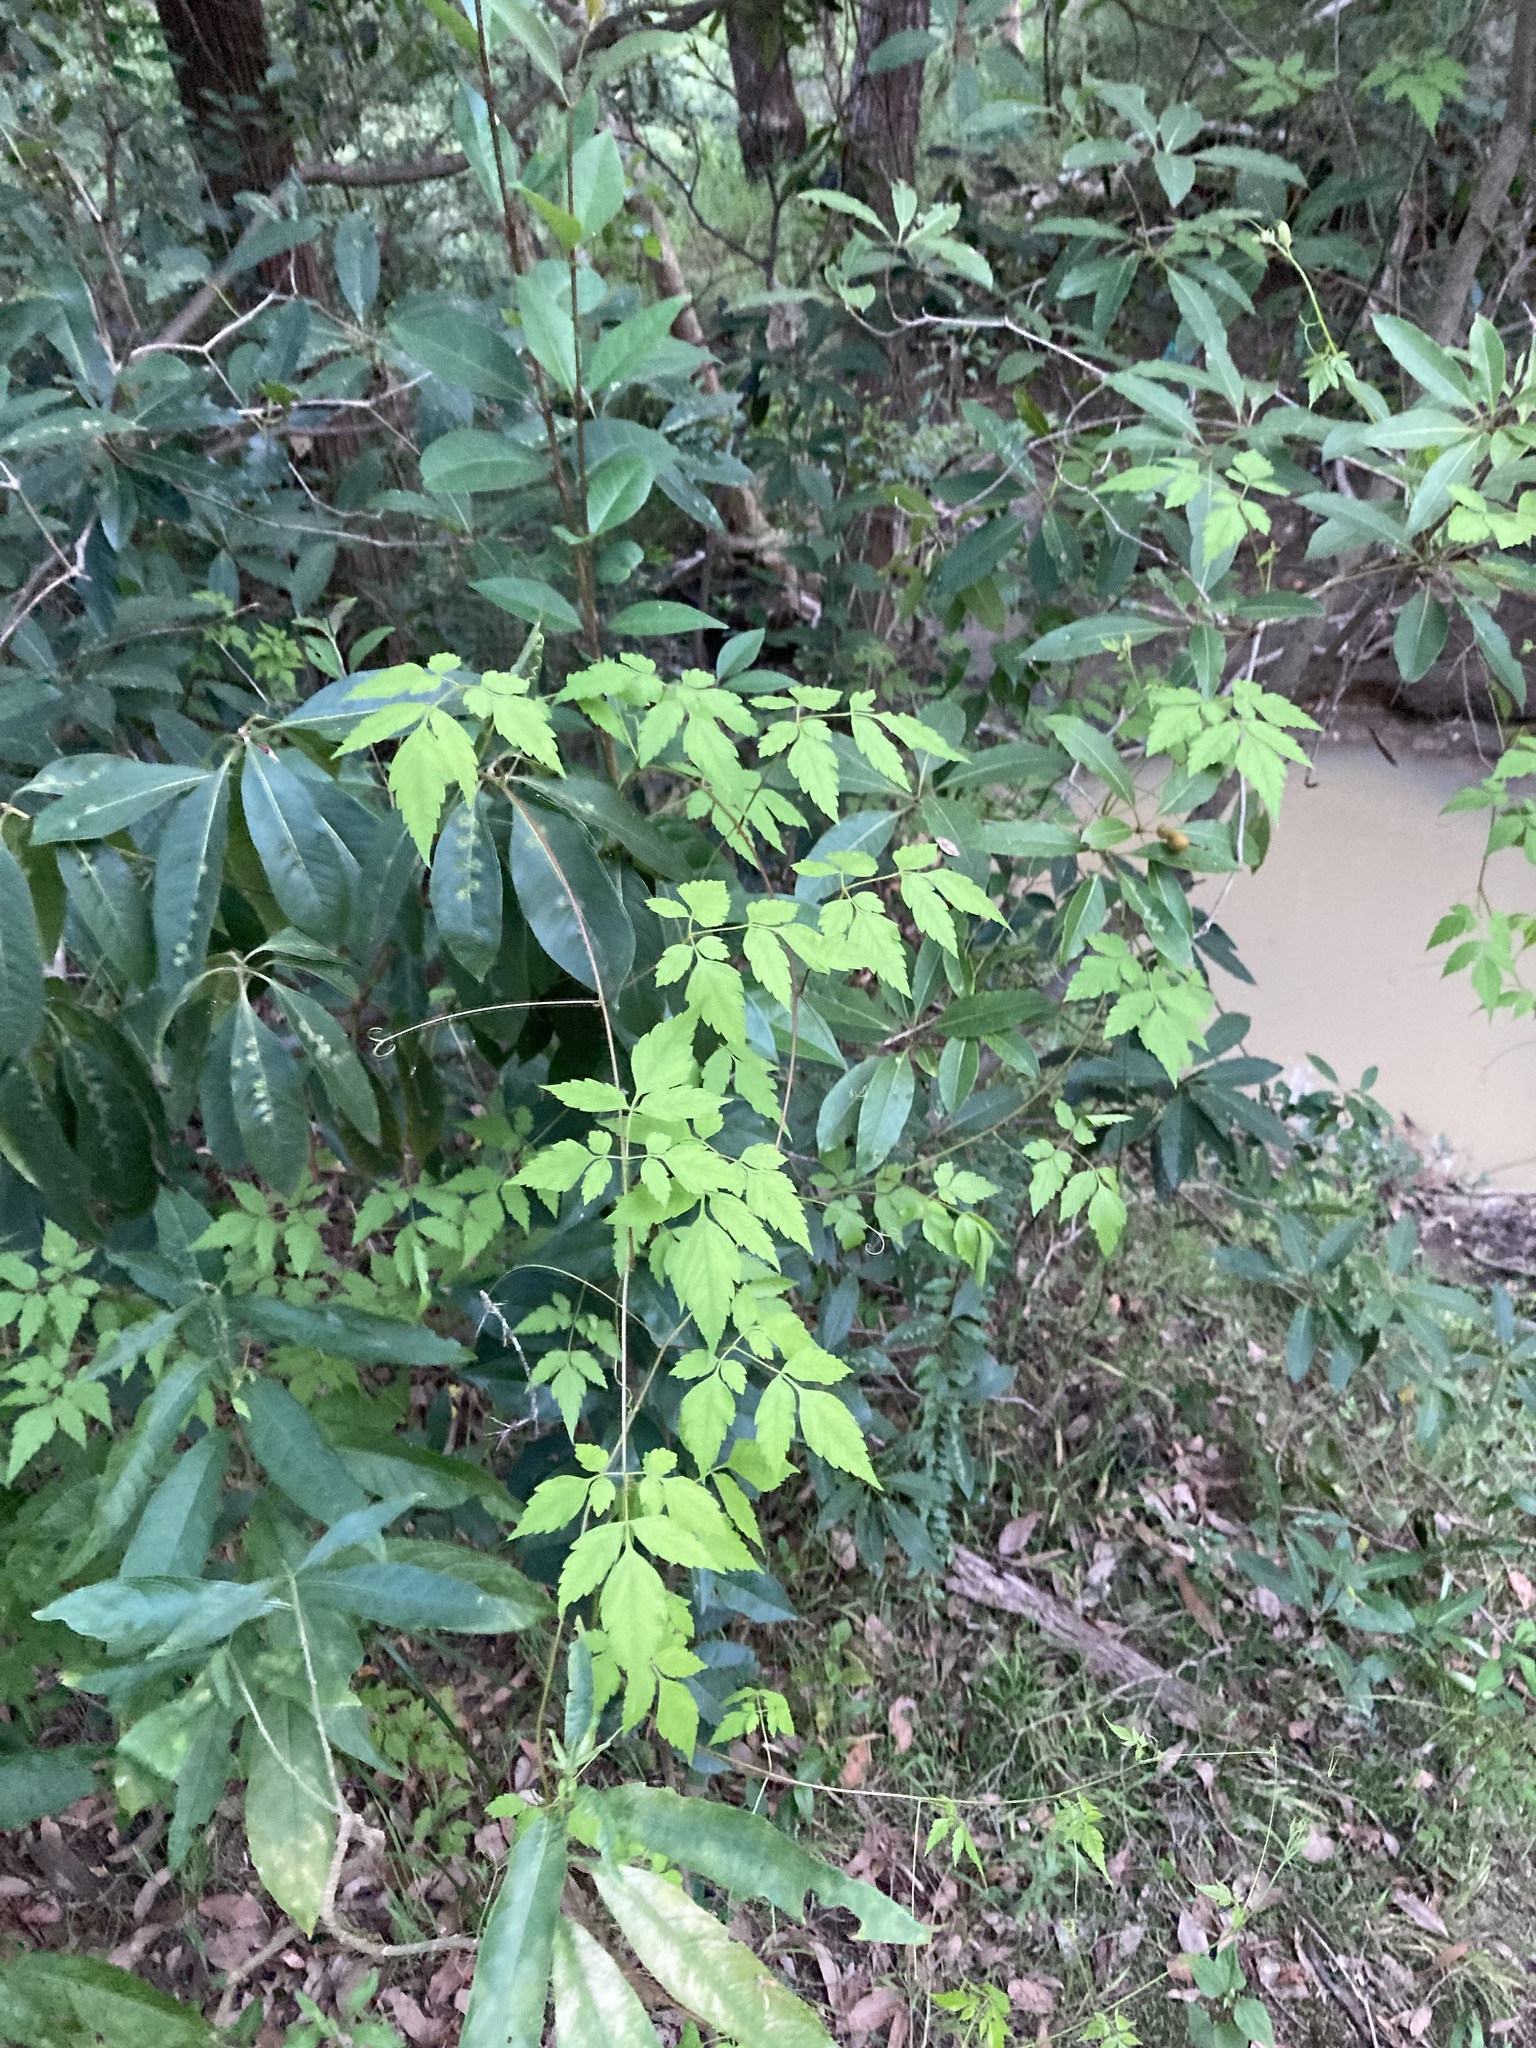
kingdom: Plantae
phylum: Tracheophyta
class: Magnoliopsida
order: Sapindales
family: Sapindaceae
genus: Cardiospermum
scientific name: Cardiospermum grandiflorum
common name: Balloon vine
